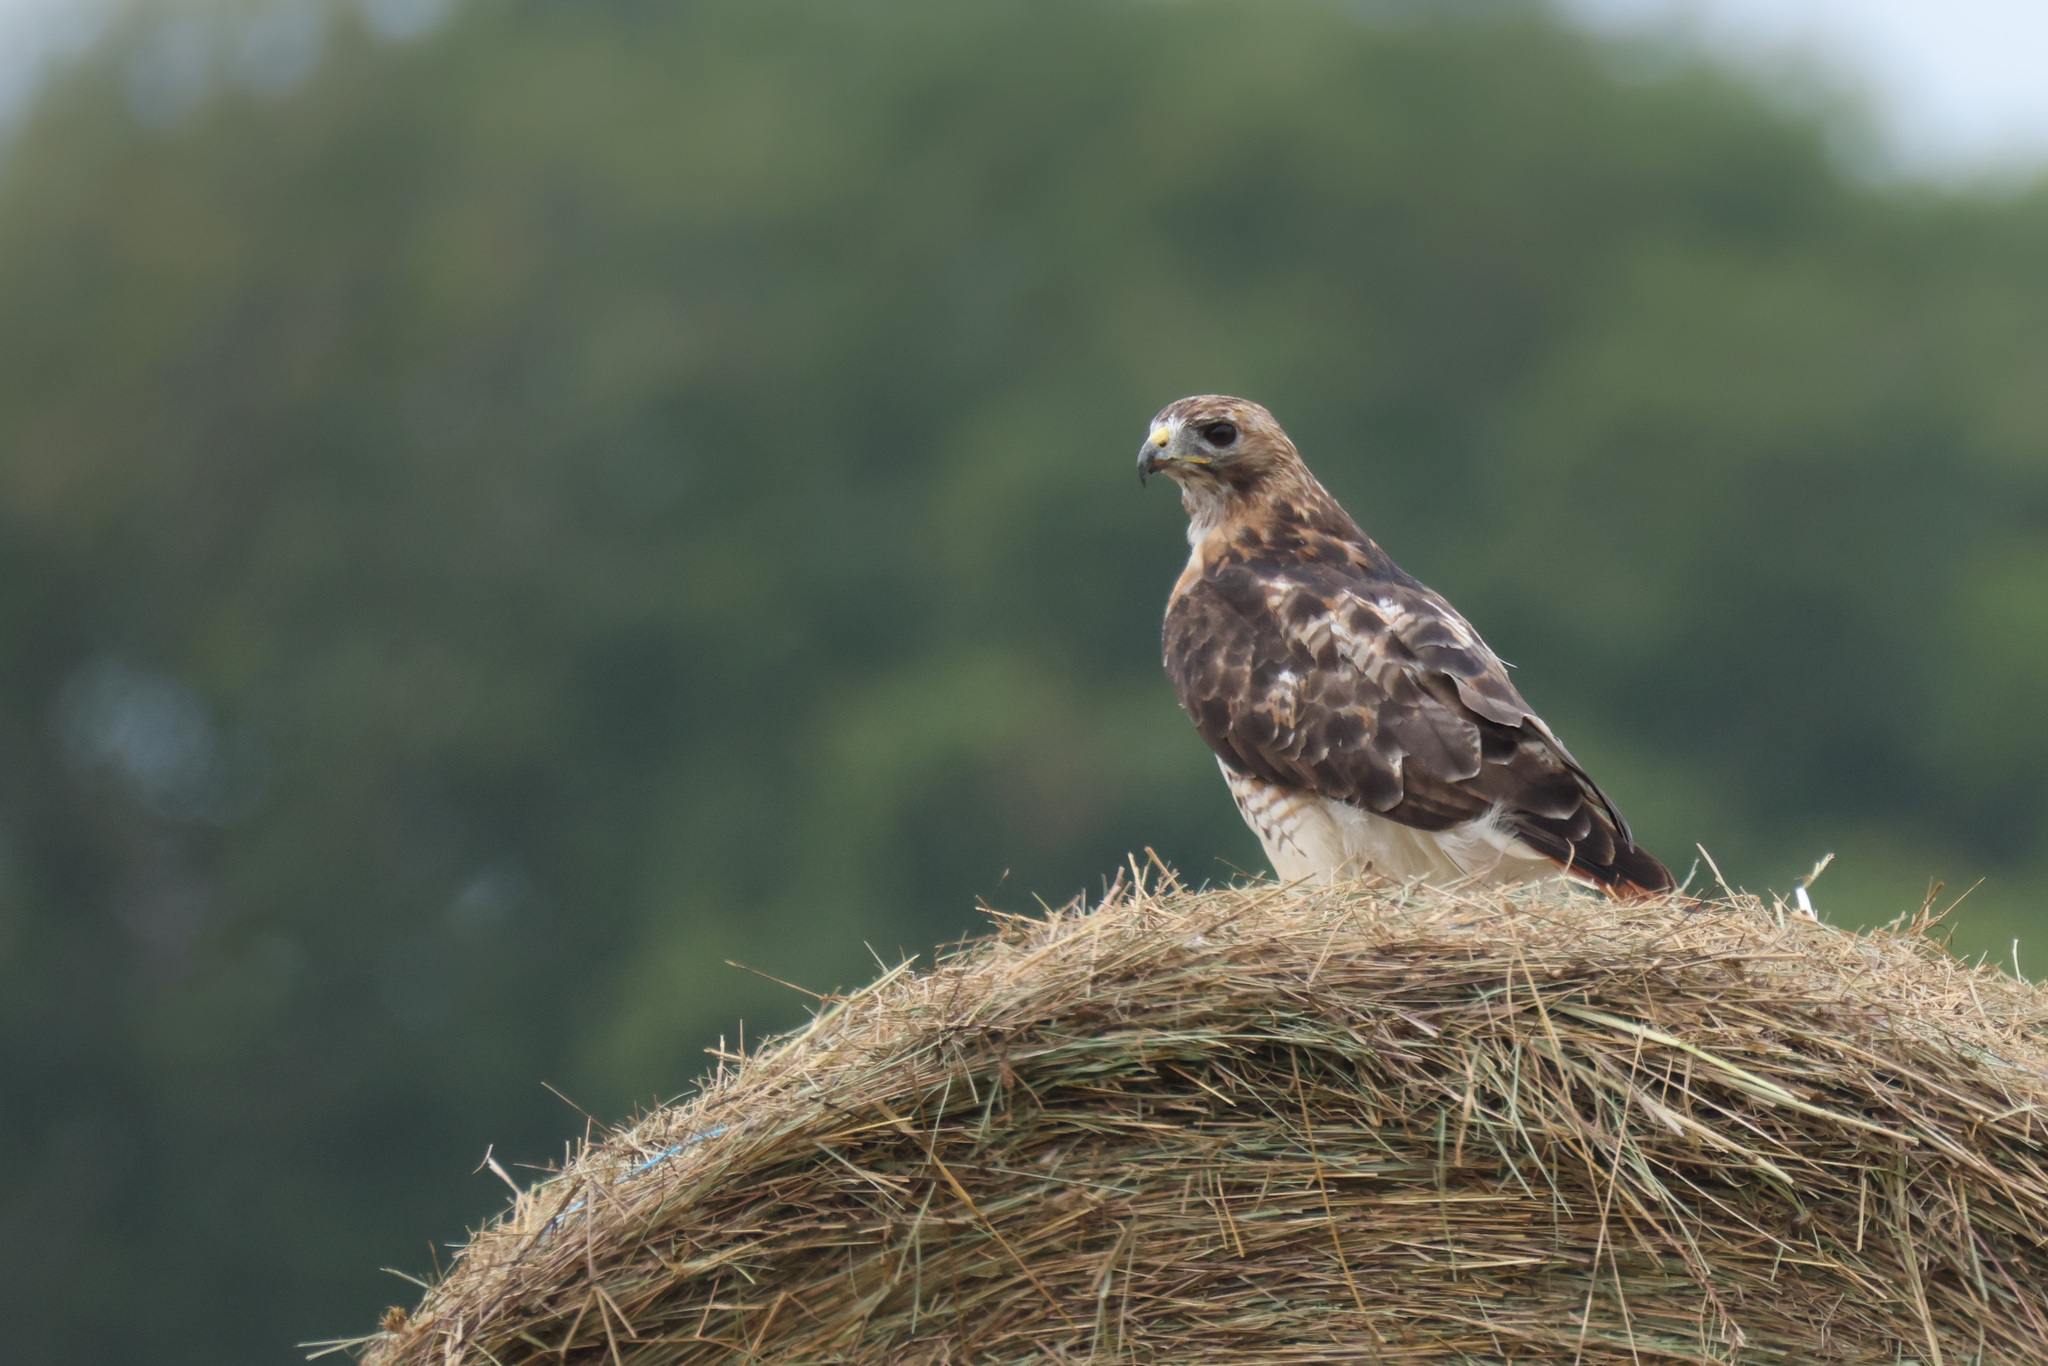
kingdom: Animalia
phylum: Chordata
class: Aves
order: Accipitriformes
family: Accipitridae
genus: Buteo
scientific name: Buteo jamaicensis
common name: Red-tailed hawk
